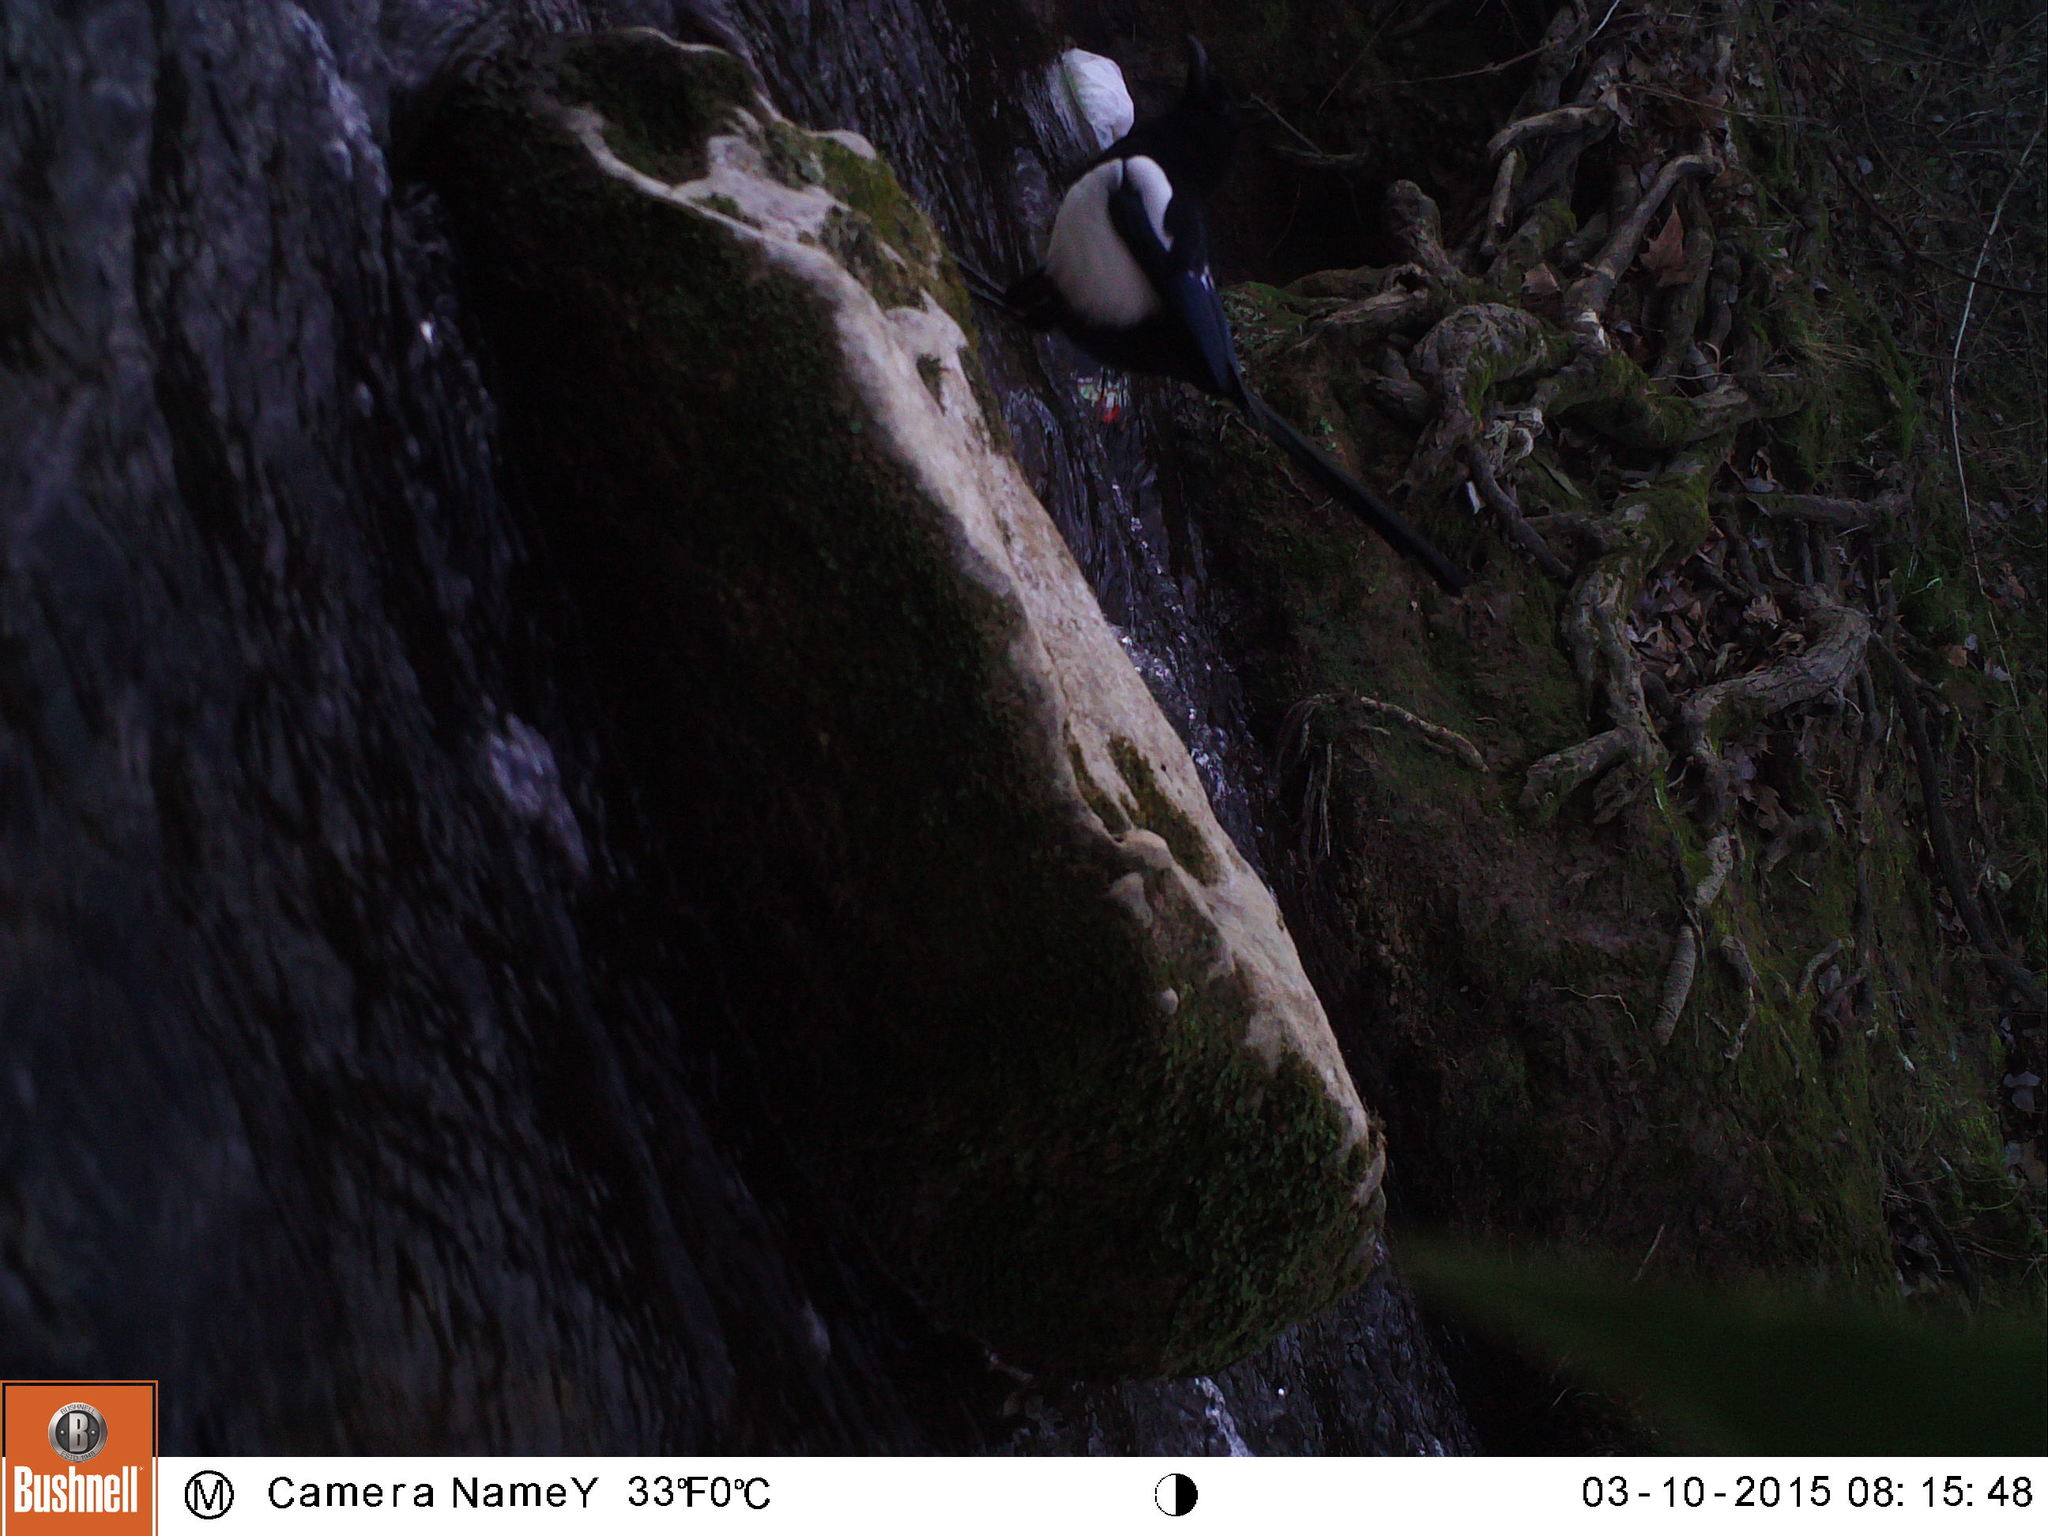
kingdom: Animalia
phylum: Chordata
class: Aves
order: Passeriformes
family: Corvidae
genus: Pica
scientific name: Pica pica
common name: Eurasian magpie
